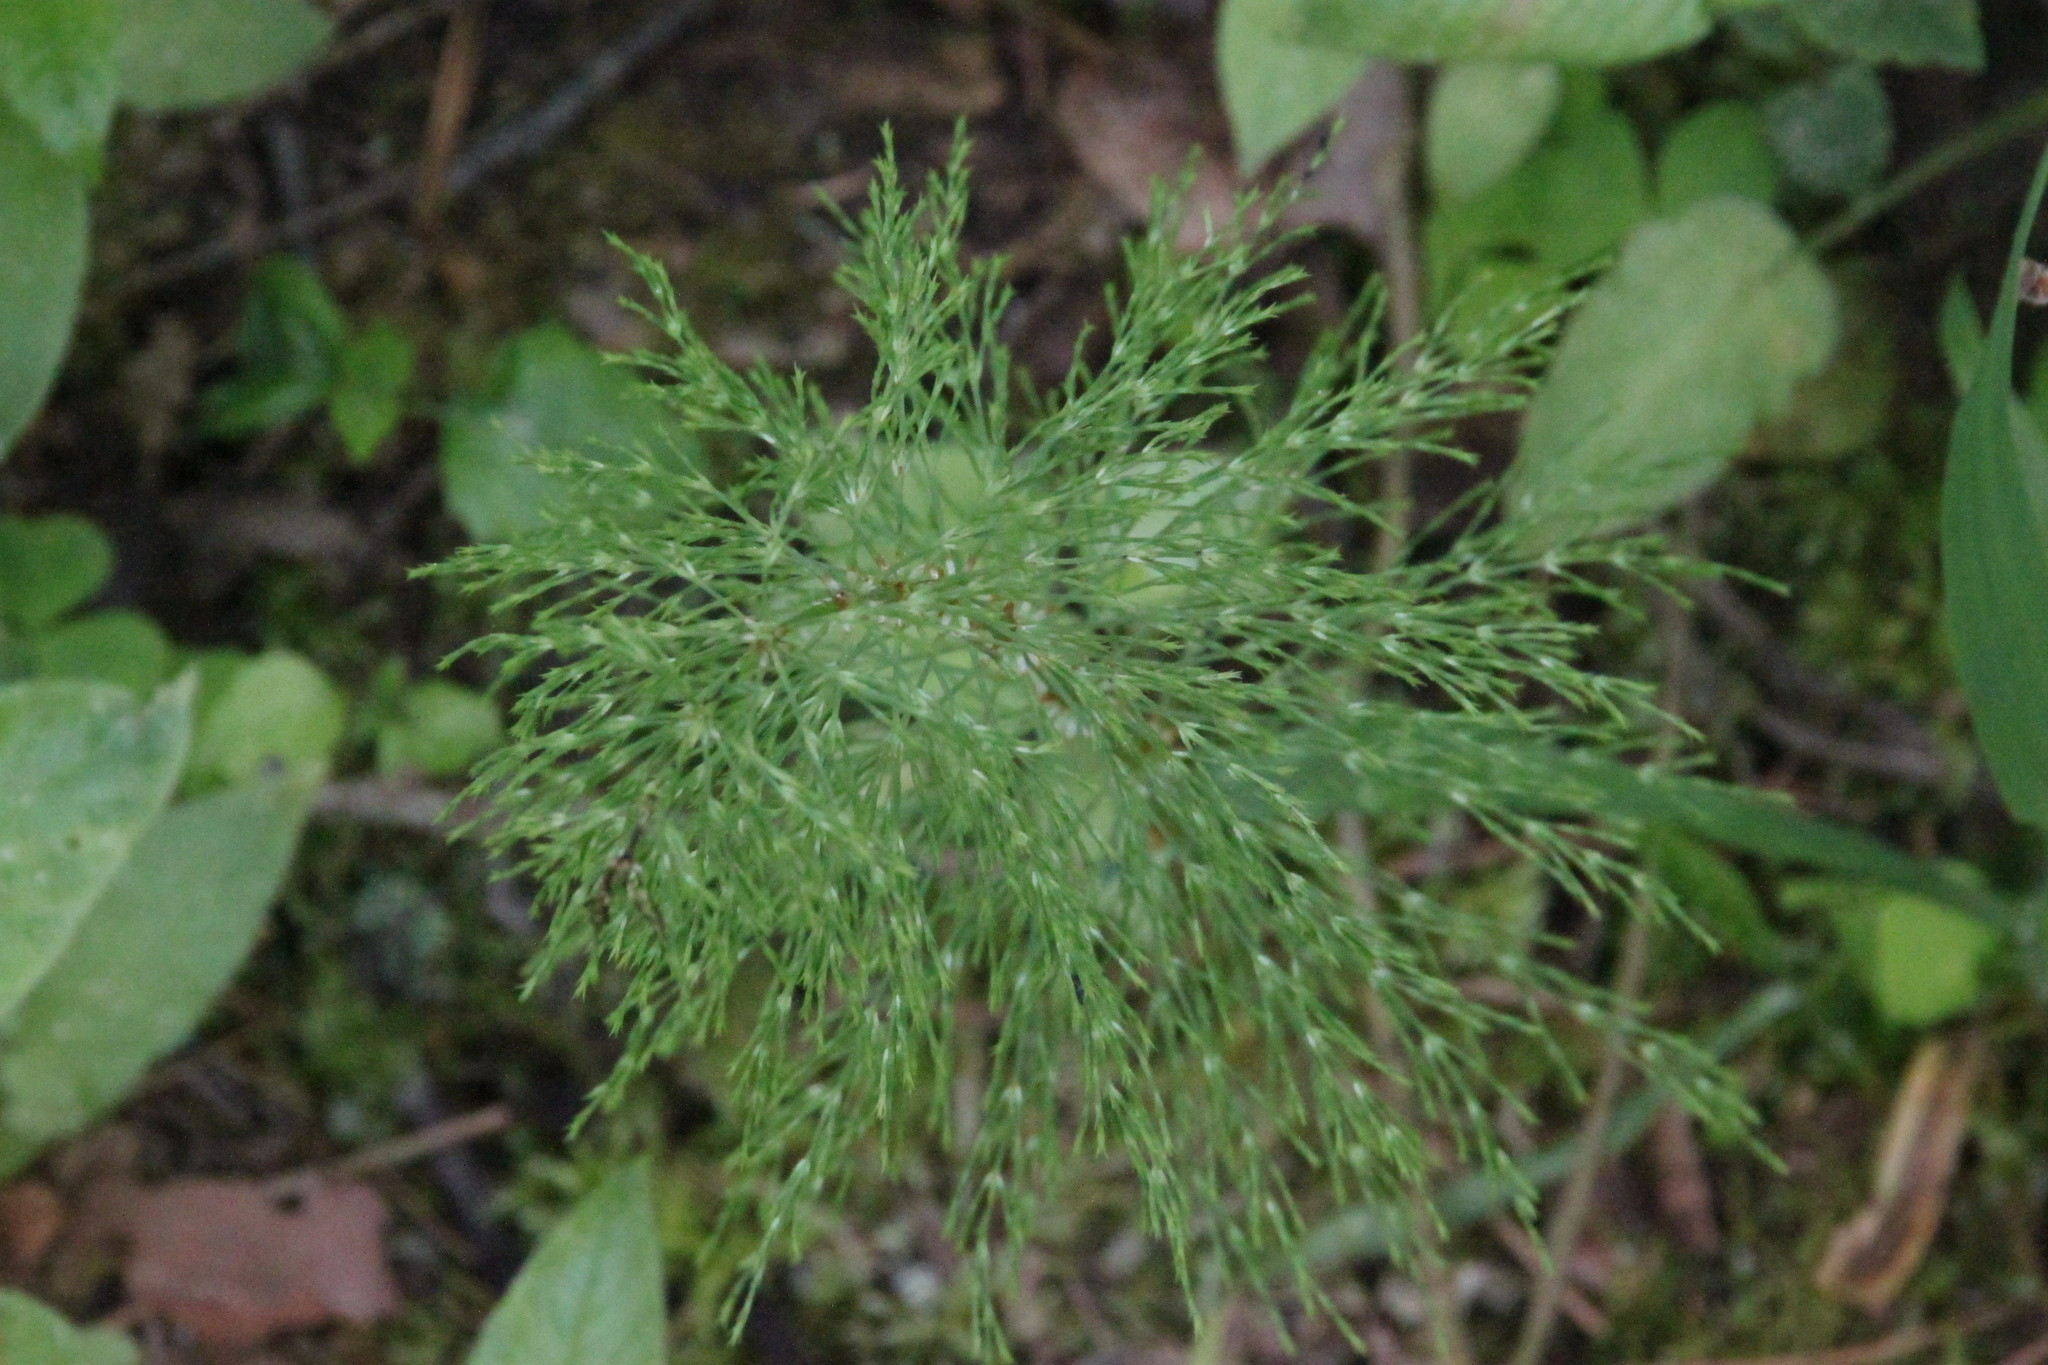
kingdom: Plantae
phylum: Tracheophyta
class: Polypodiopsida
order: Equisetales
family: Equisetaceae
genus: Equisetum
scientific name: Equisetum sylvaticum
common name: Wood horsetail
